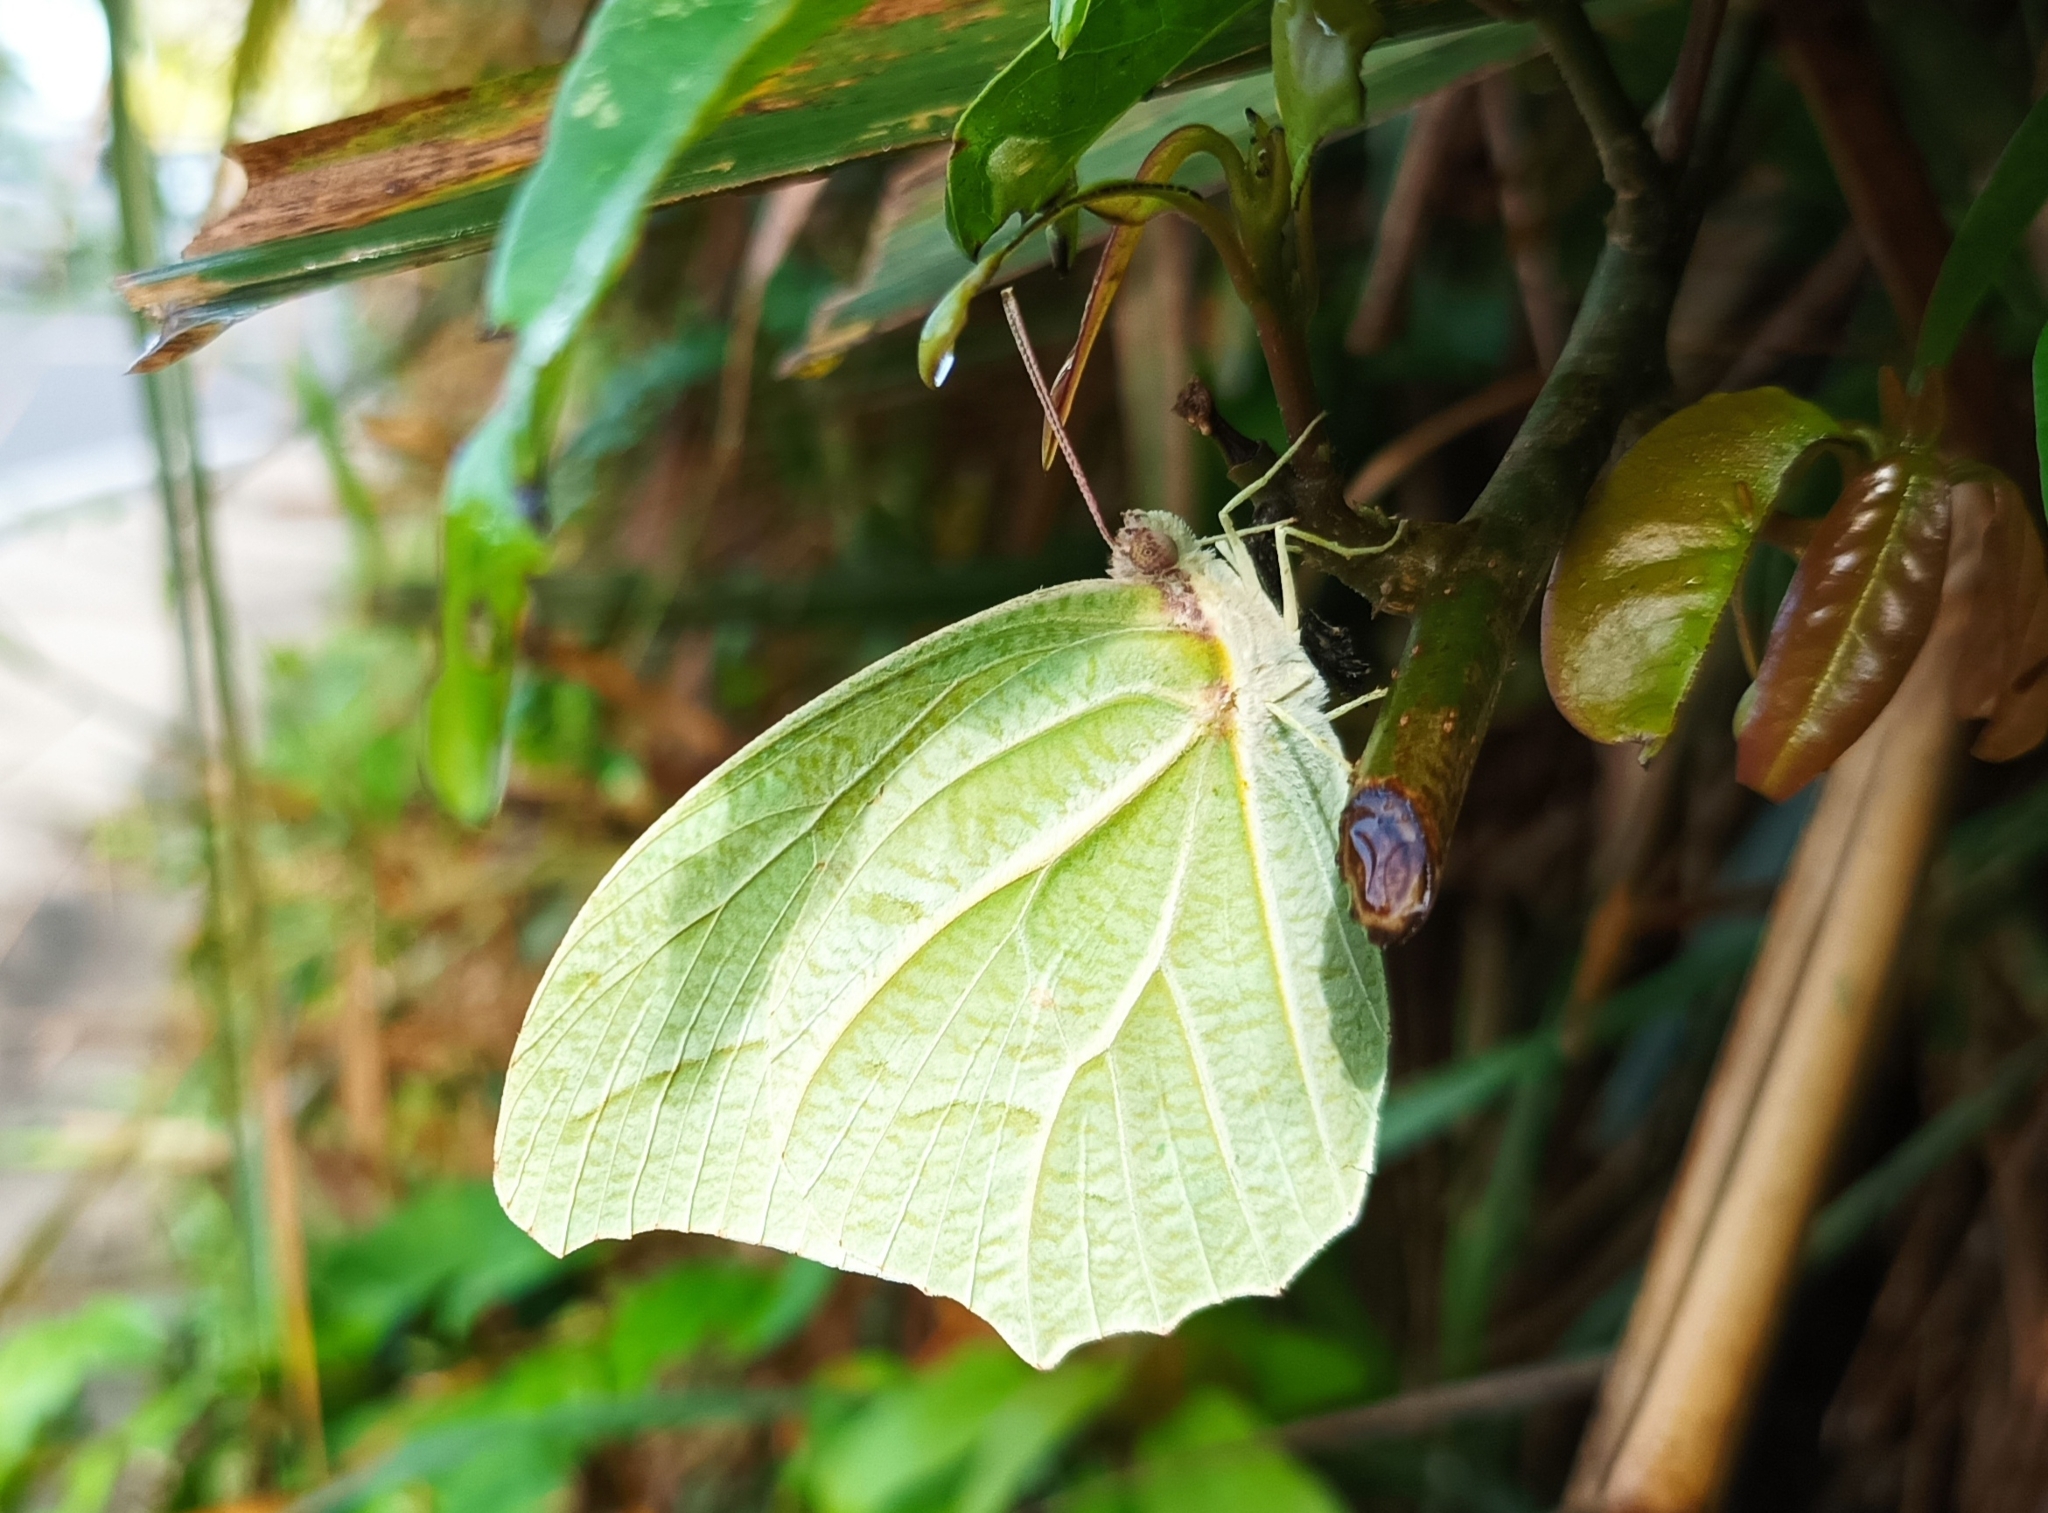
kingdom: Animalia
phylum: Arthropoda
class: Insecta
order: Lepidoptera
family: Pieridae
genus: Anteos
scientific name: Anteos clorinde
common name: White angled sulphur
